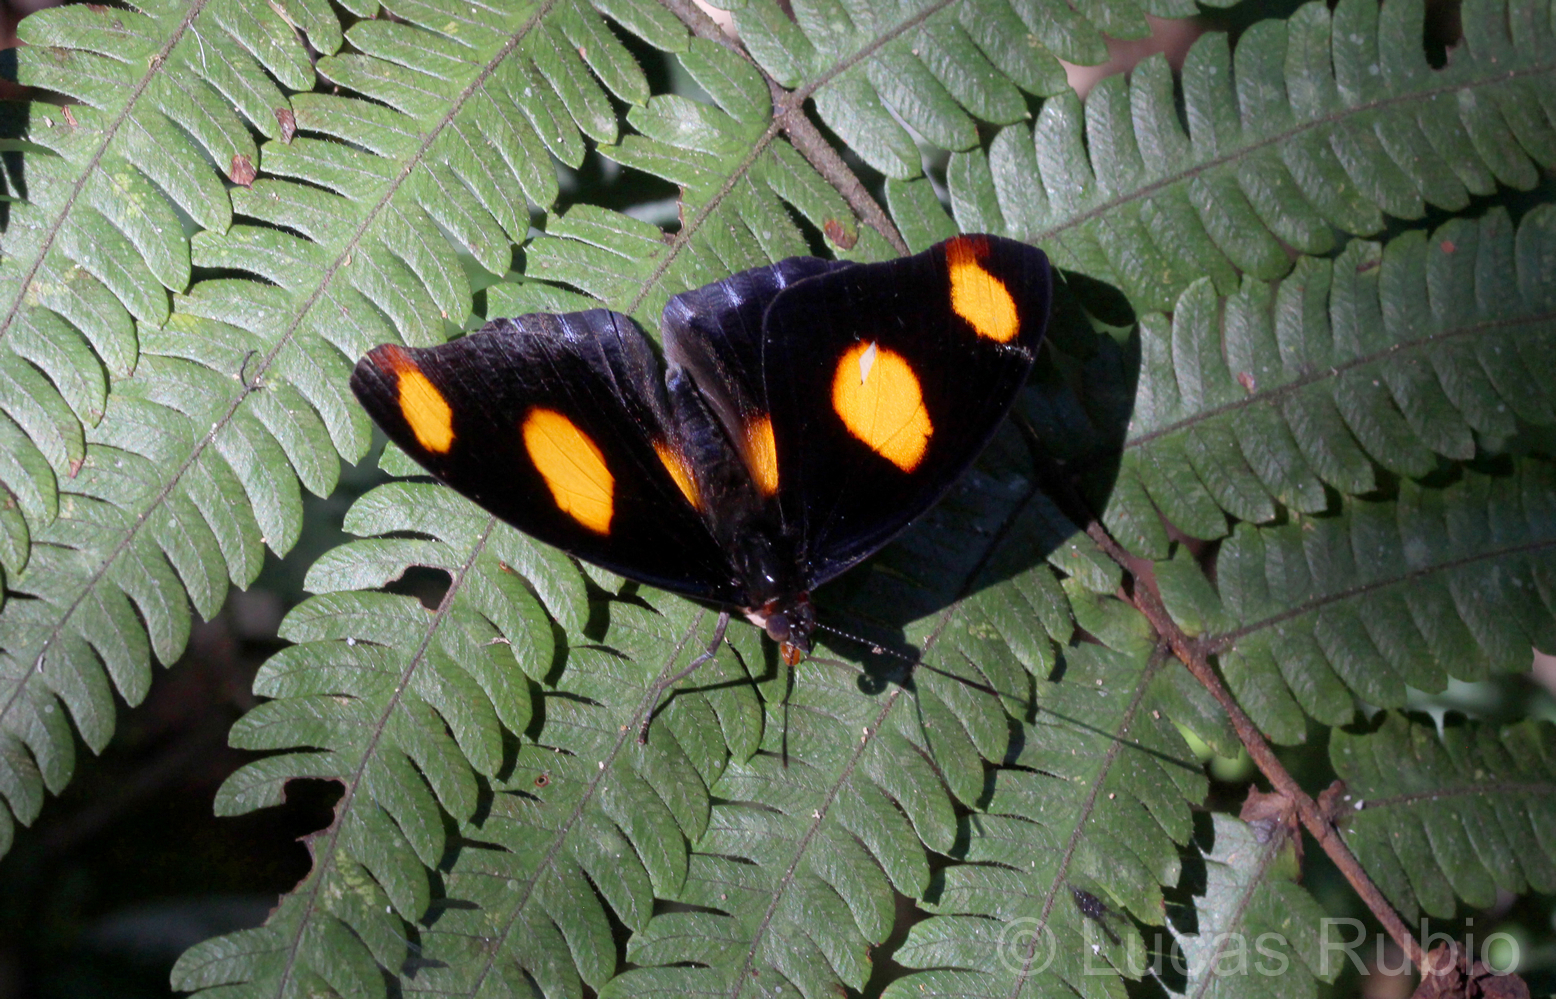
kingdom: Animalia
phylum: Arthropoda
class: Insecta
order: Lepidoptera
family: Nymphalidae
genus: Catonephele
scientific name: Catonephele numilia
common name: Blue-frosted banner
